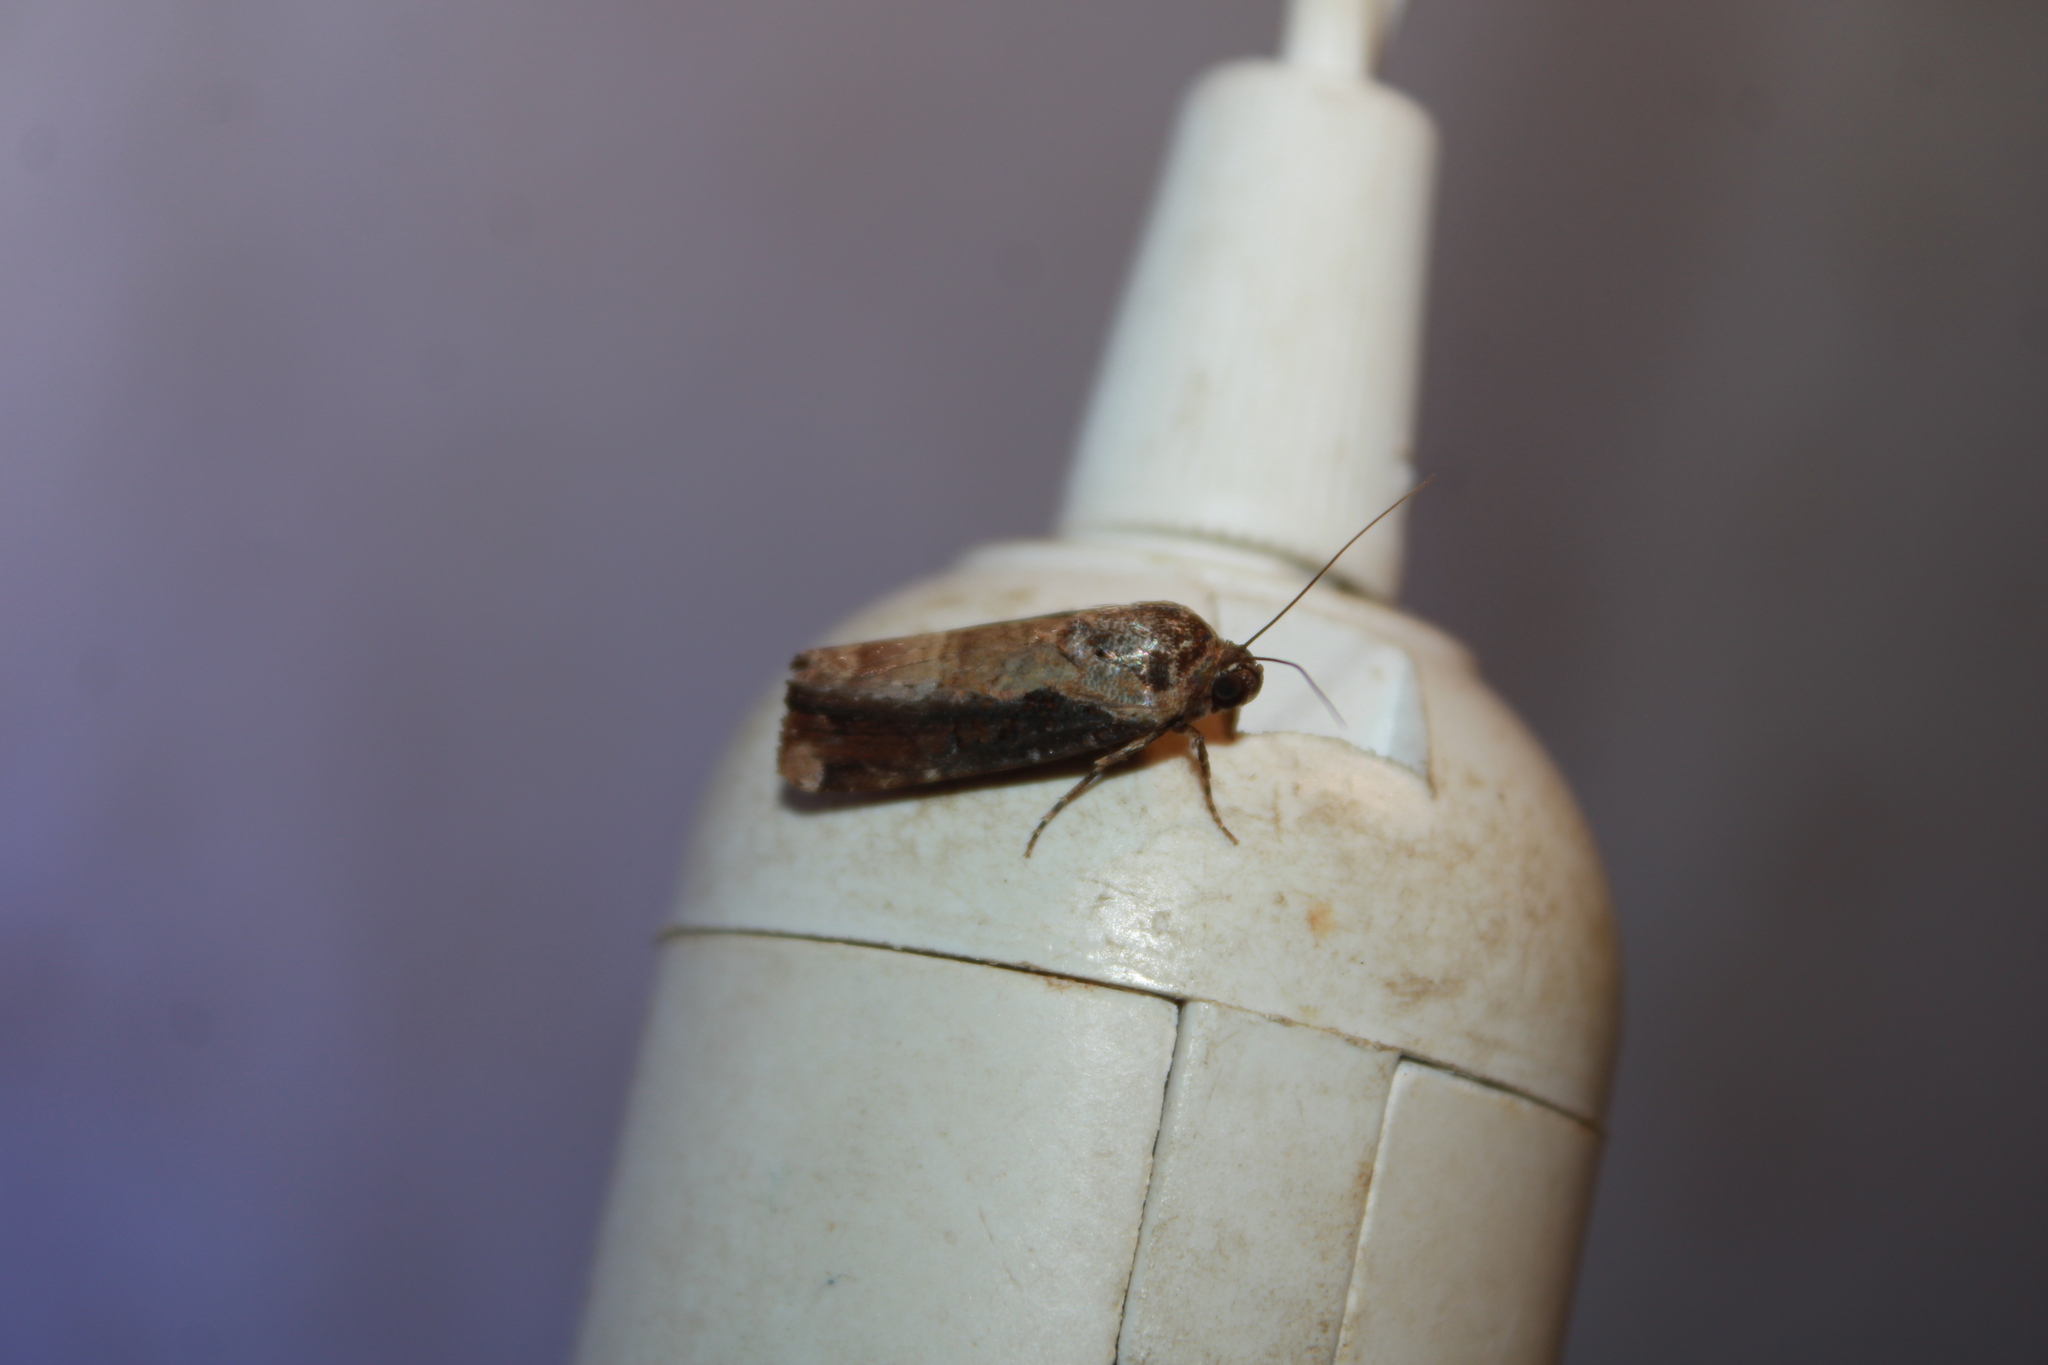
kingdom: Animalia
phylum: Arthropoda
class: Insecta
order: Lepidoptera
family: Noctuidae
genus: Magusa
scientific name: Magusa orbifera
